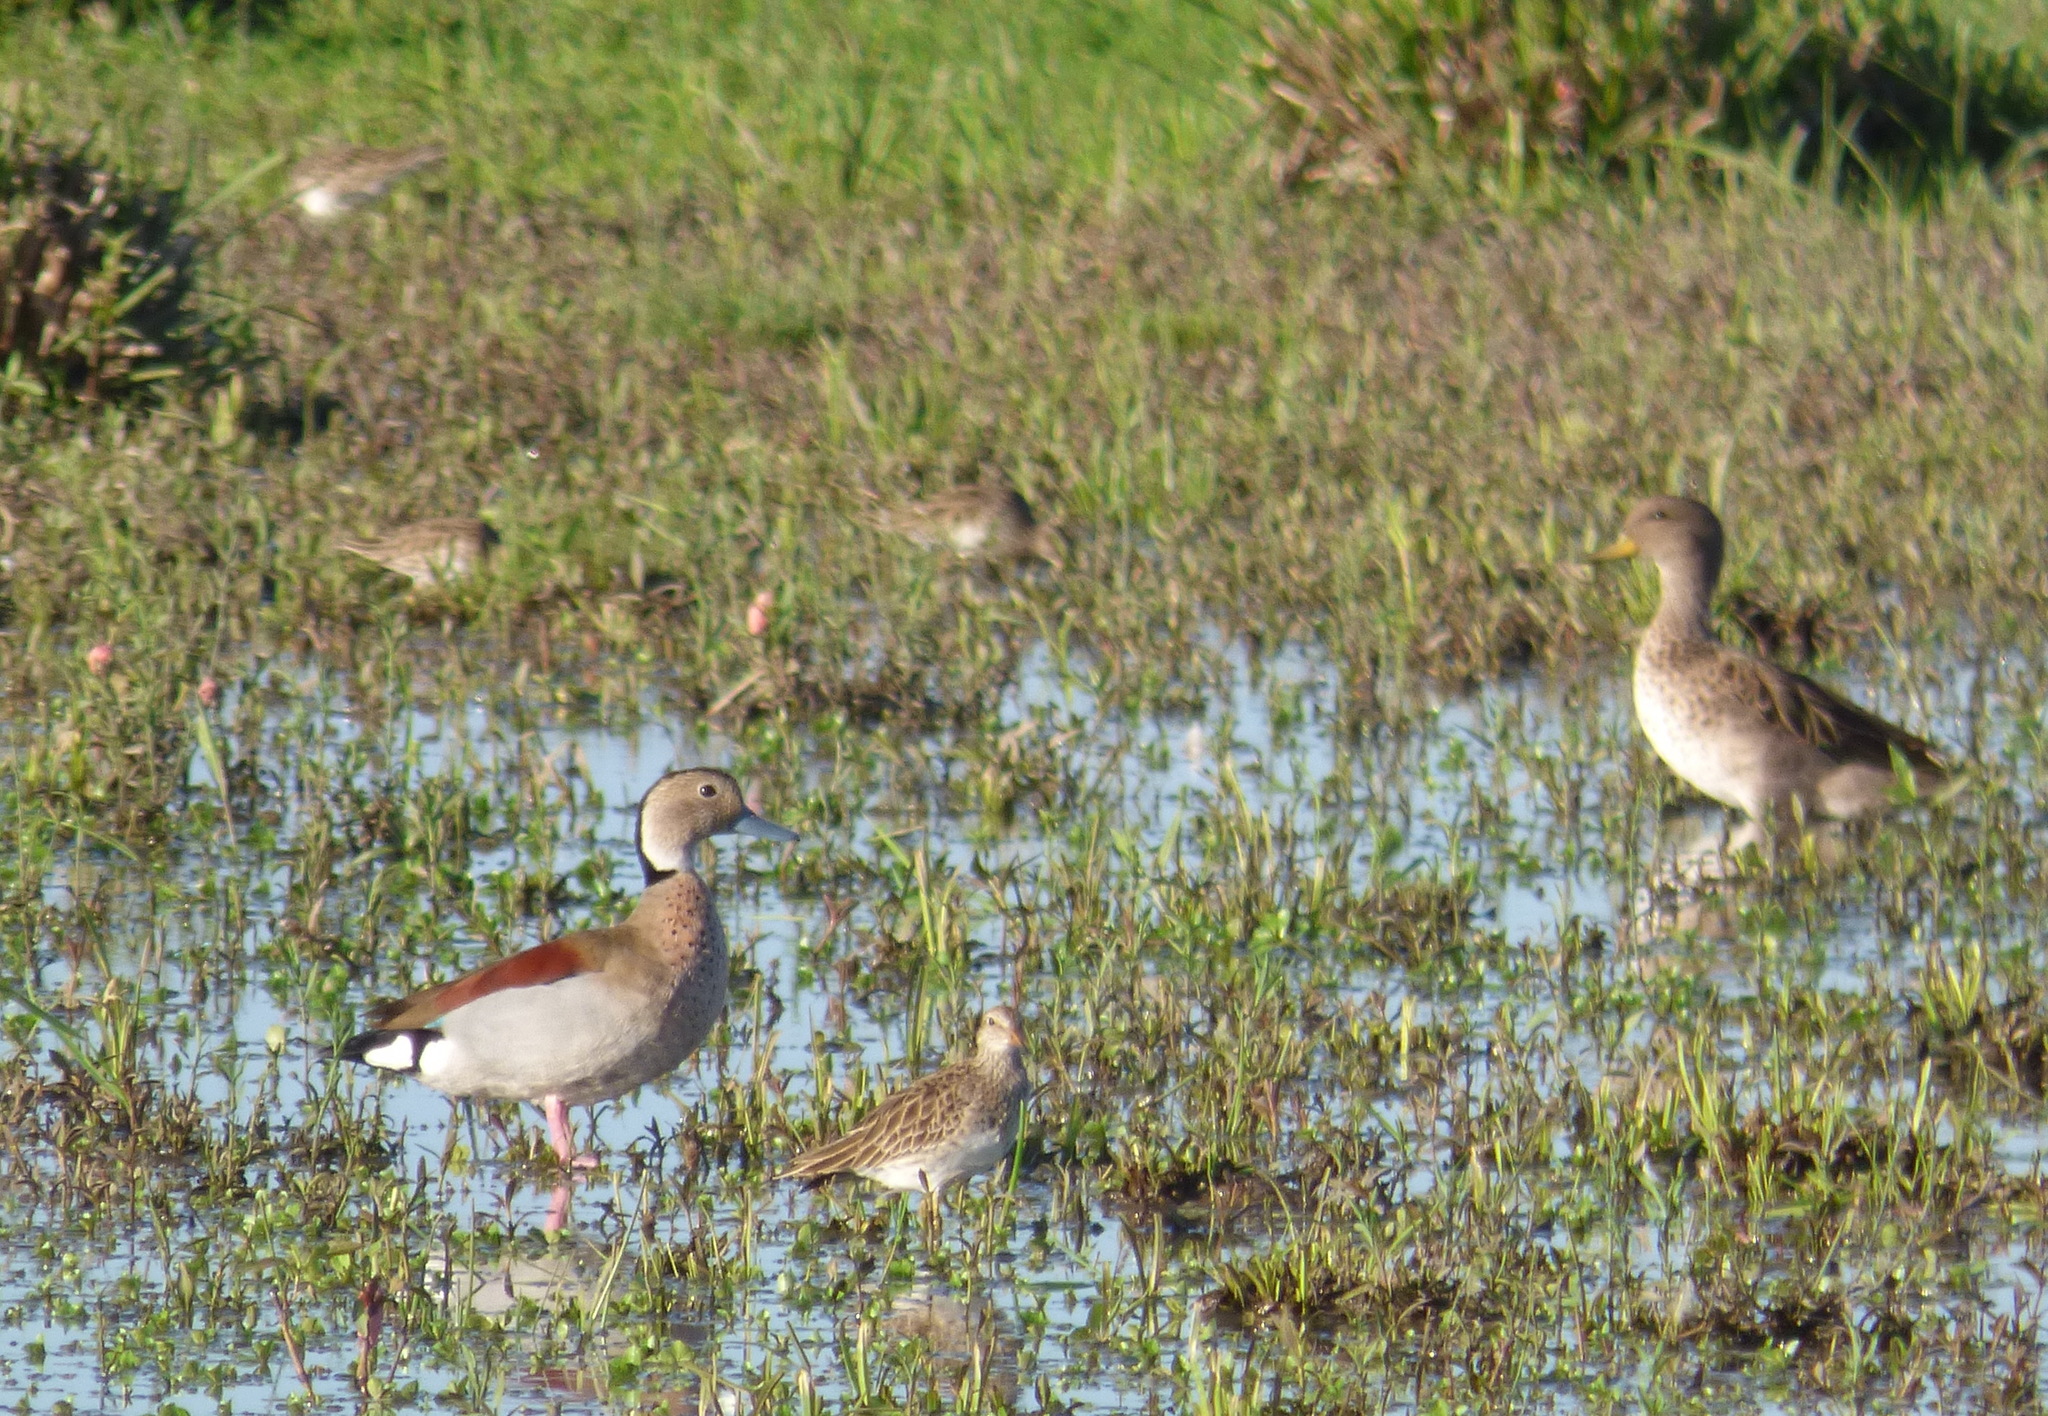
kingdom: Animalia
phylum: Chordata
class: Aves
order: Charadriiformes
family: Scolopacidae
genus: Calidris
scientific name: Calidris melanotos
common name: Pectoral sandpiper
